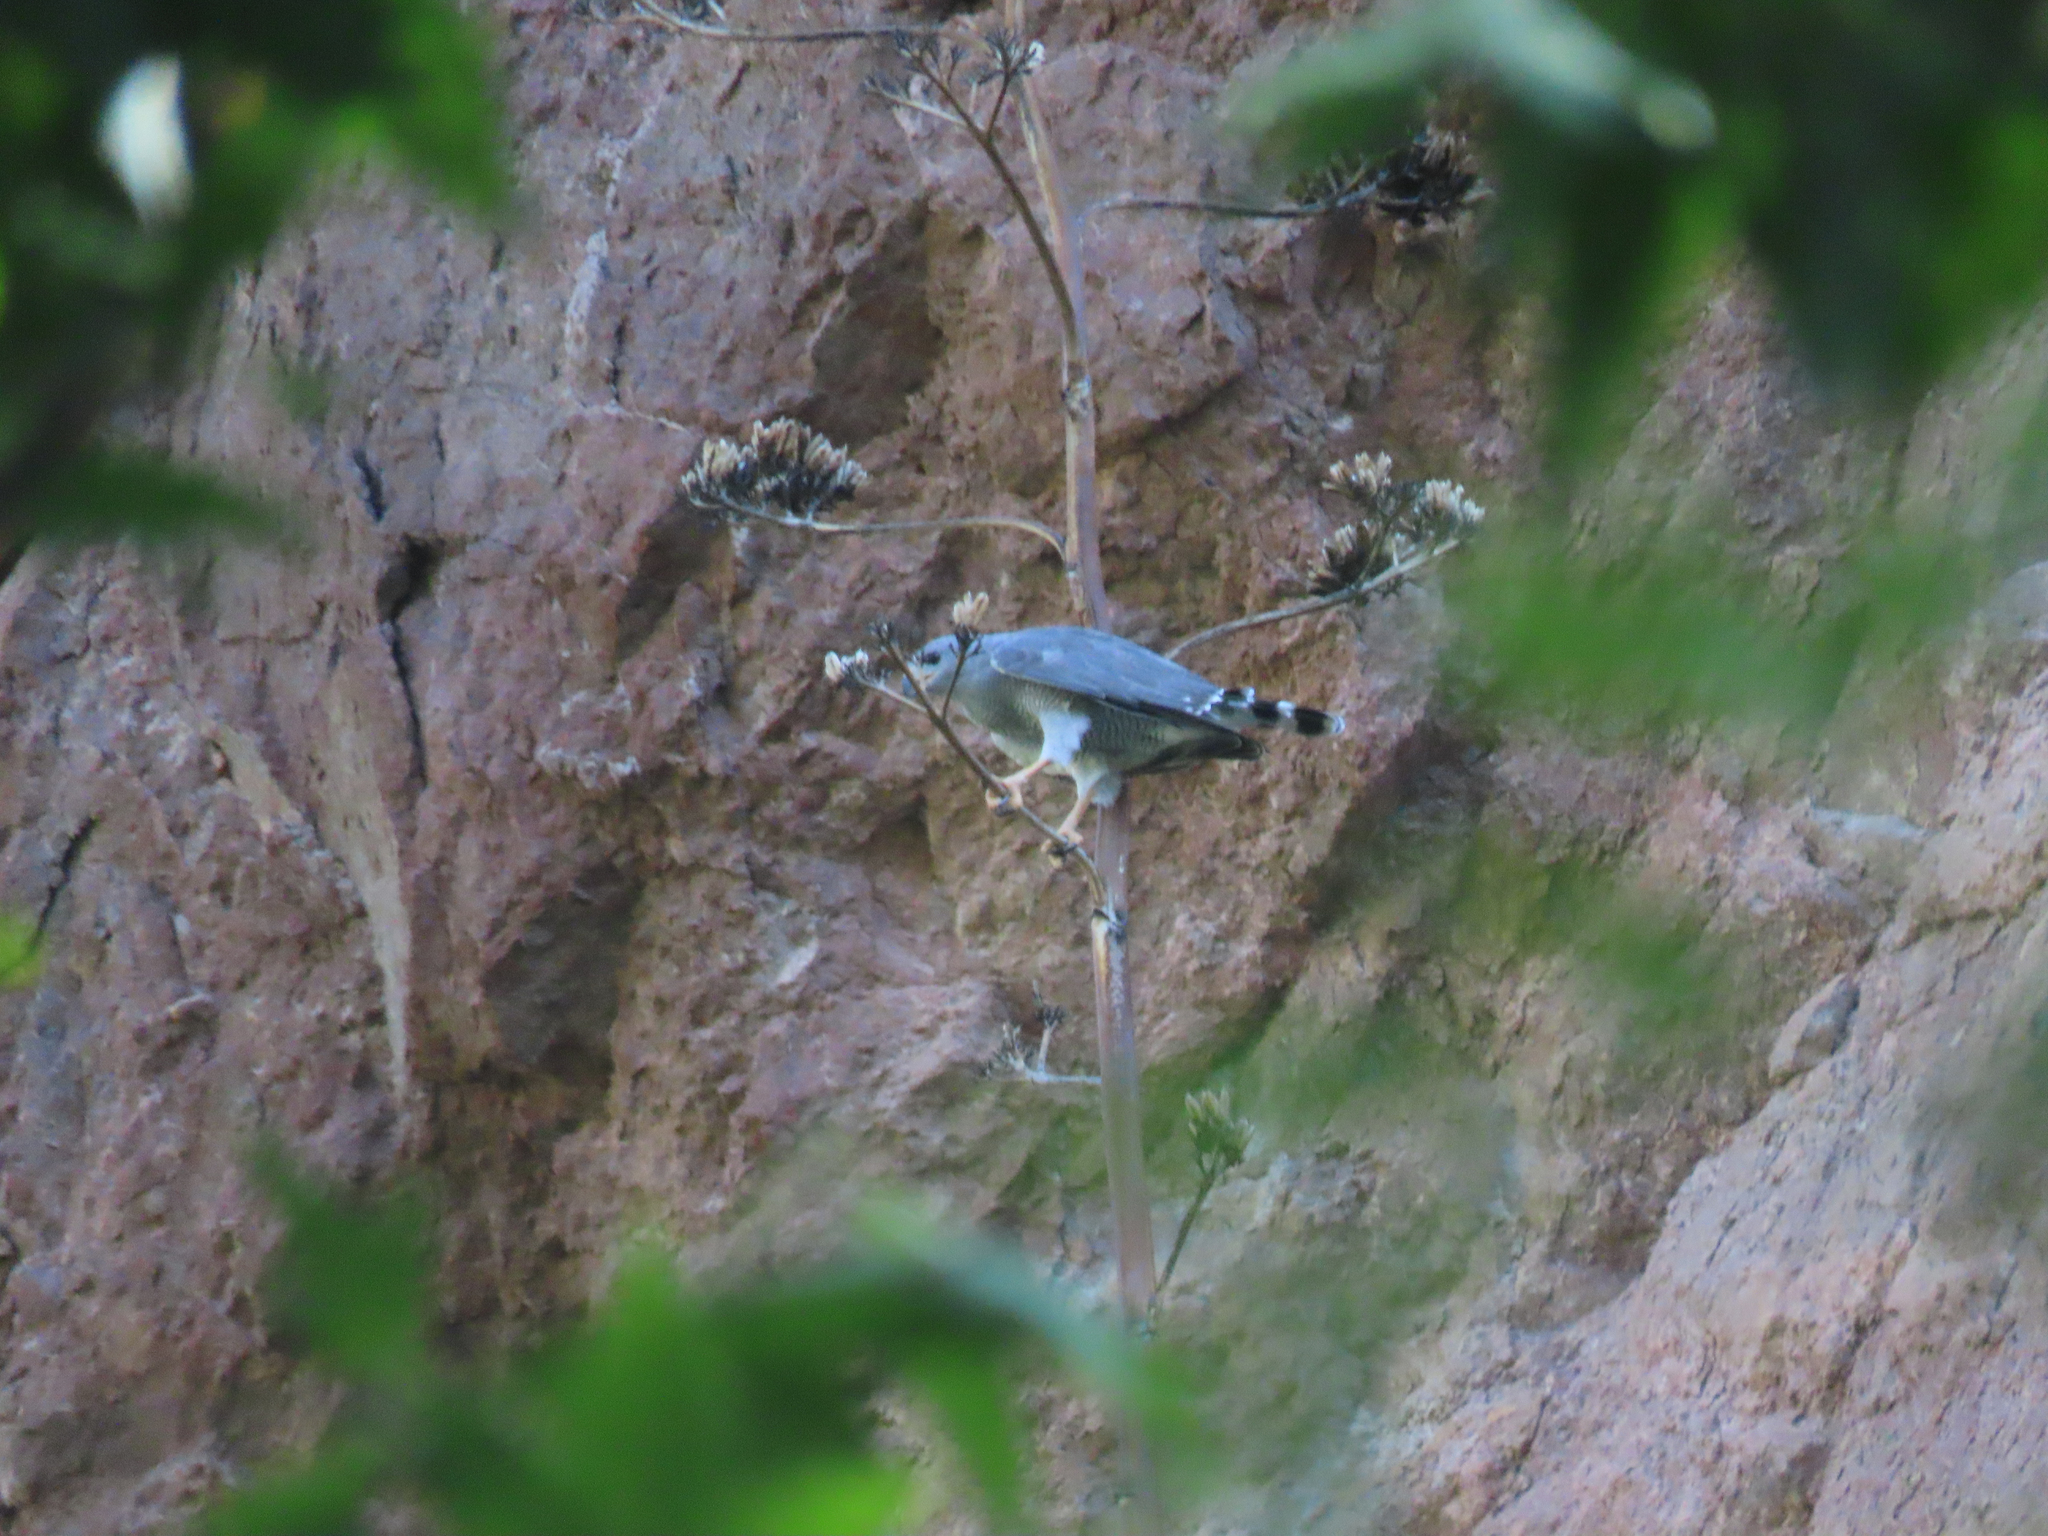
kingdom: Animalia
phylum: Chordata
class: Aves
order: Accipitriformes
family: Accipitridae
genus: Buteo
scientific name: Buteo nitidus
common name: Grey-lined hawk
